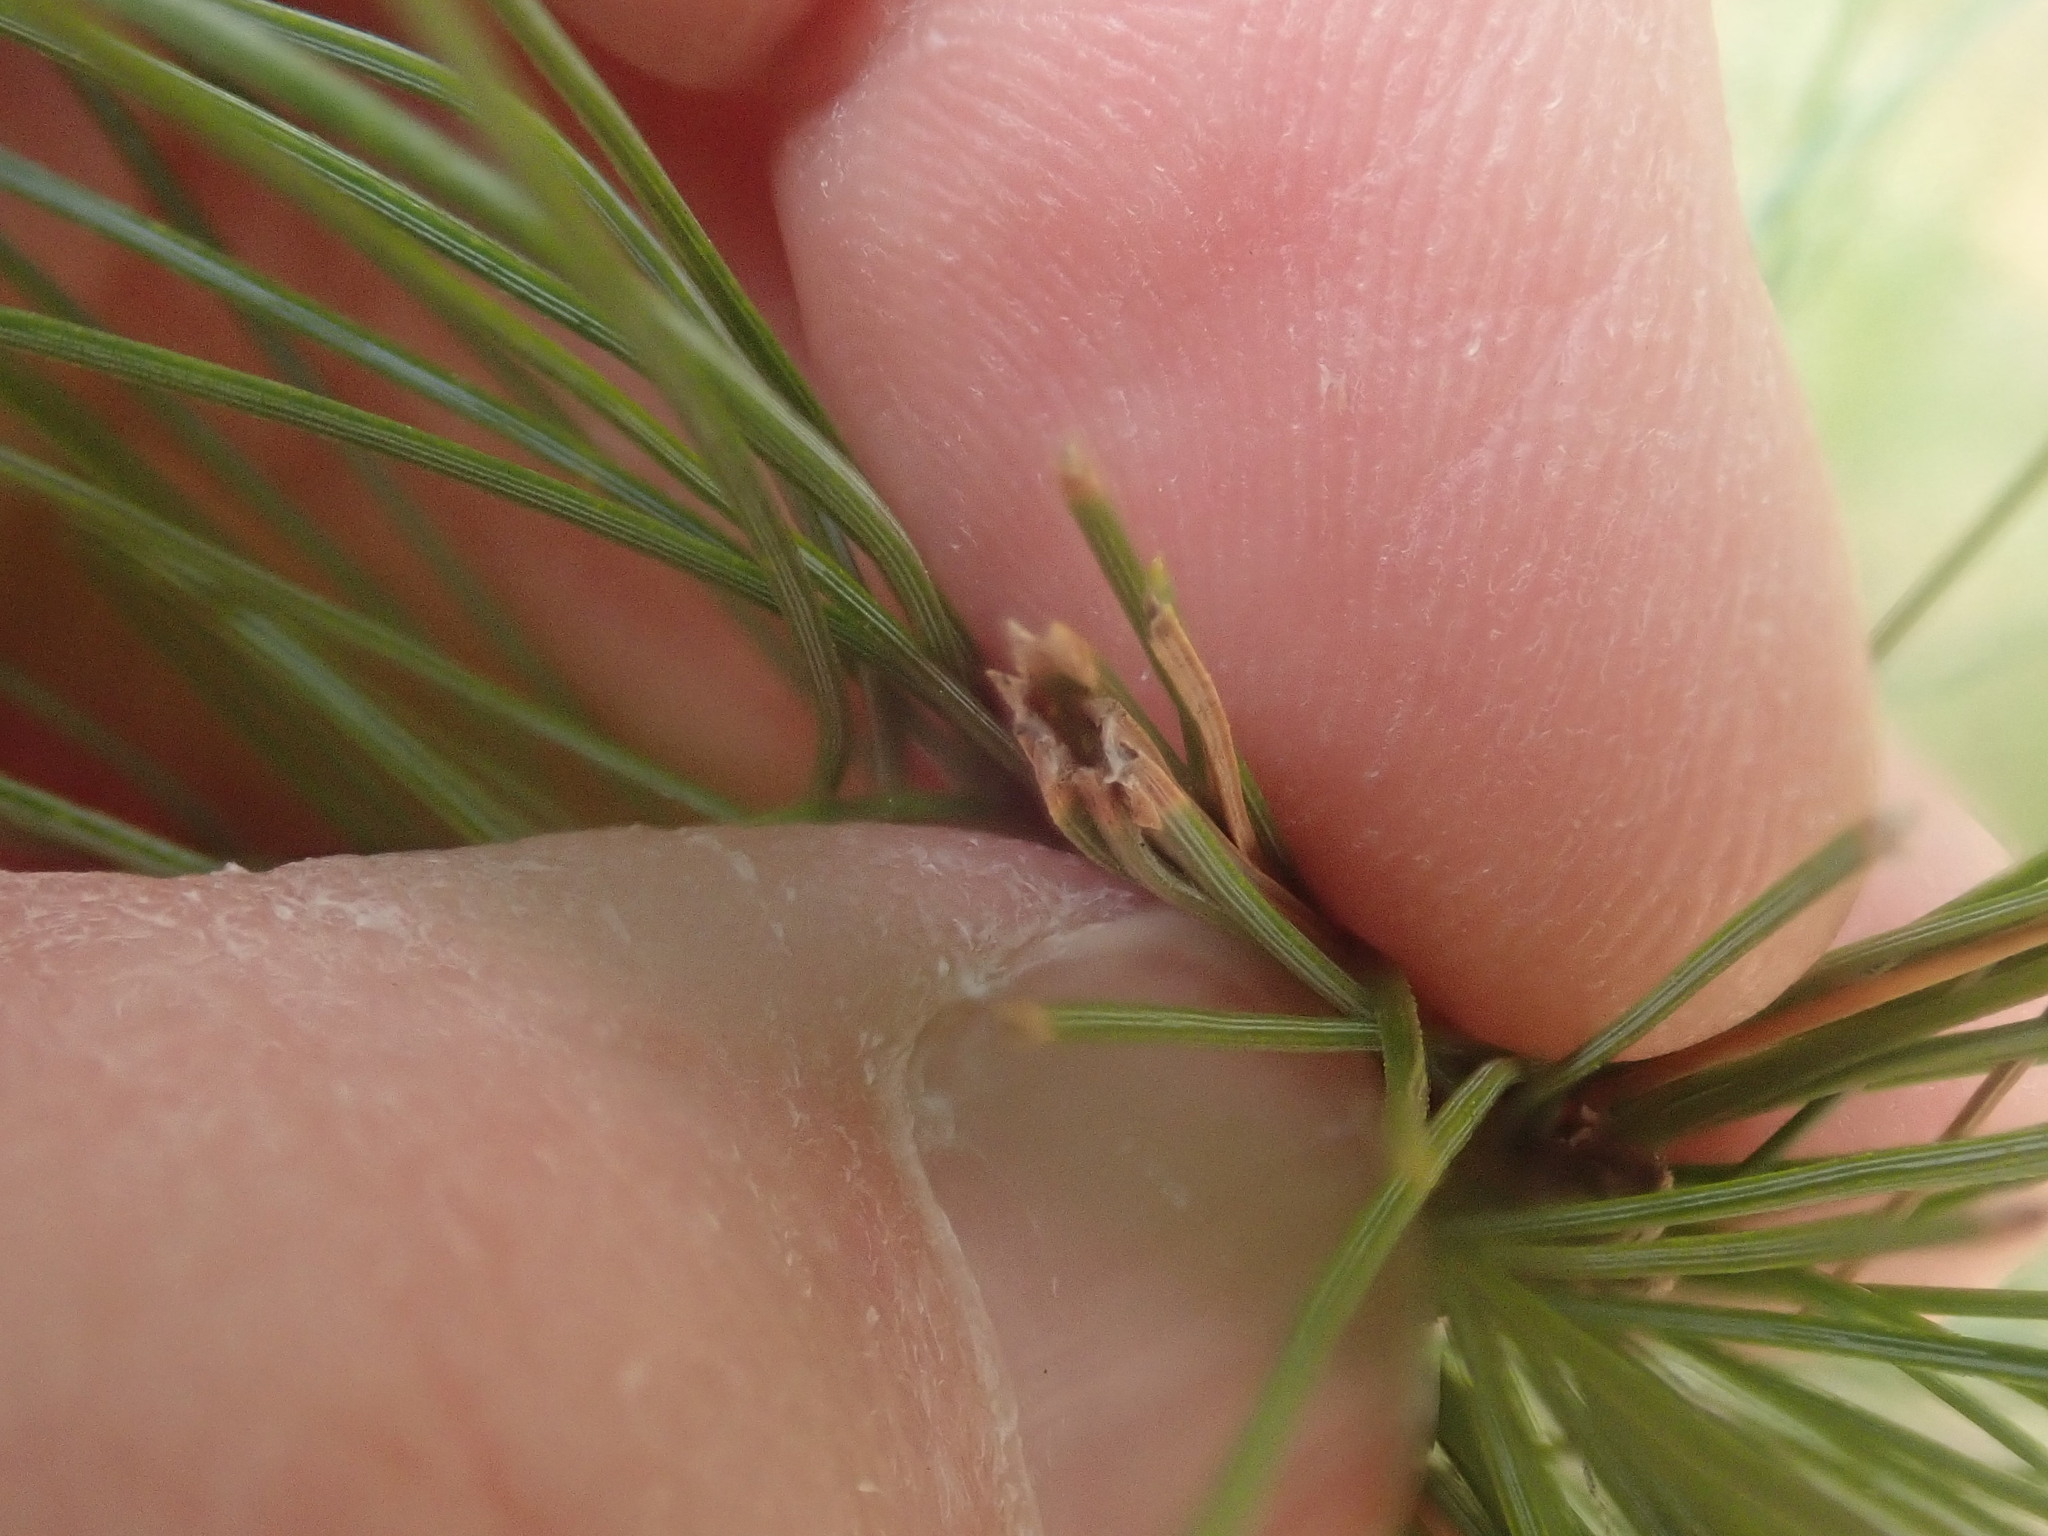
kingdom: Animalia
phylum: Arthropoda
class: Insecta
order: Lepidoptera
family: Tortricidae
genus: Argyrotaenia
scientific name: Argyrotaenia pinatubana
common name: Pine tube moth
